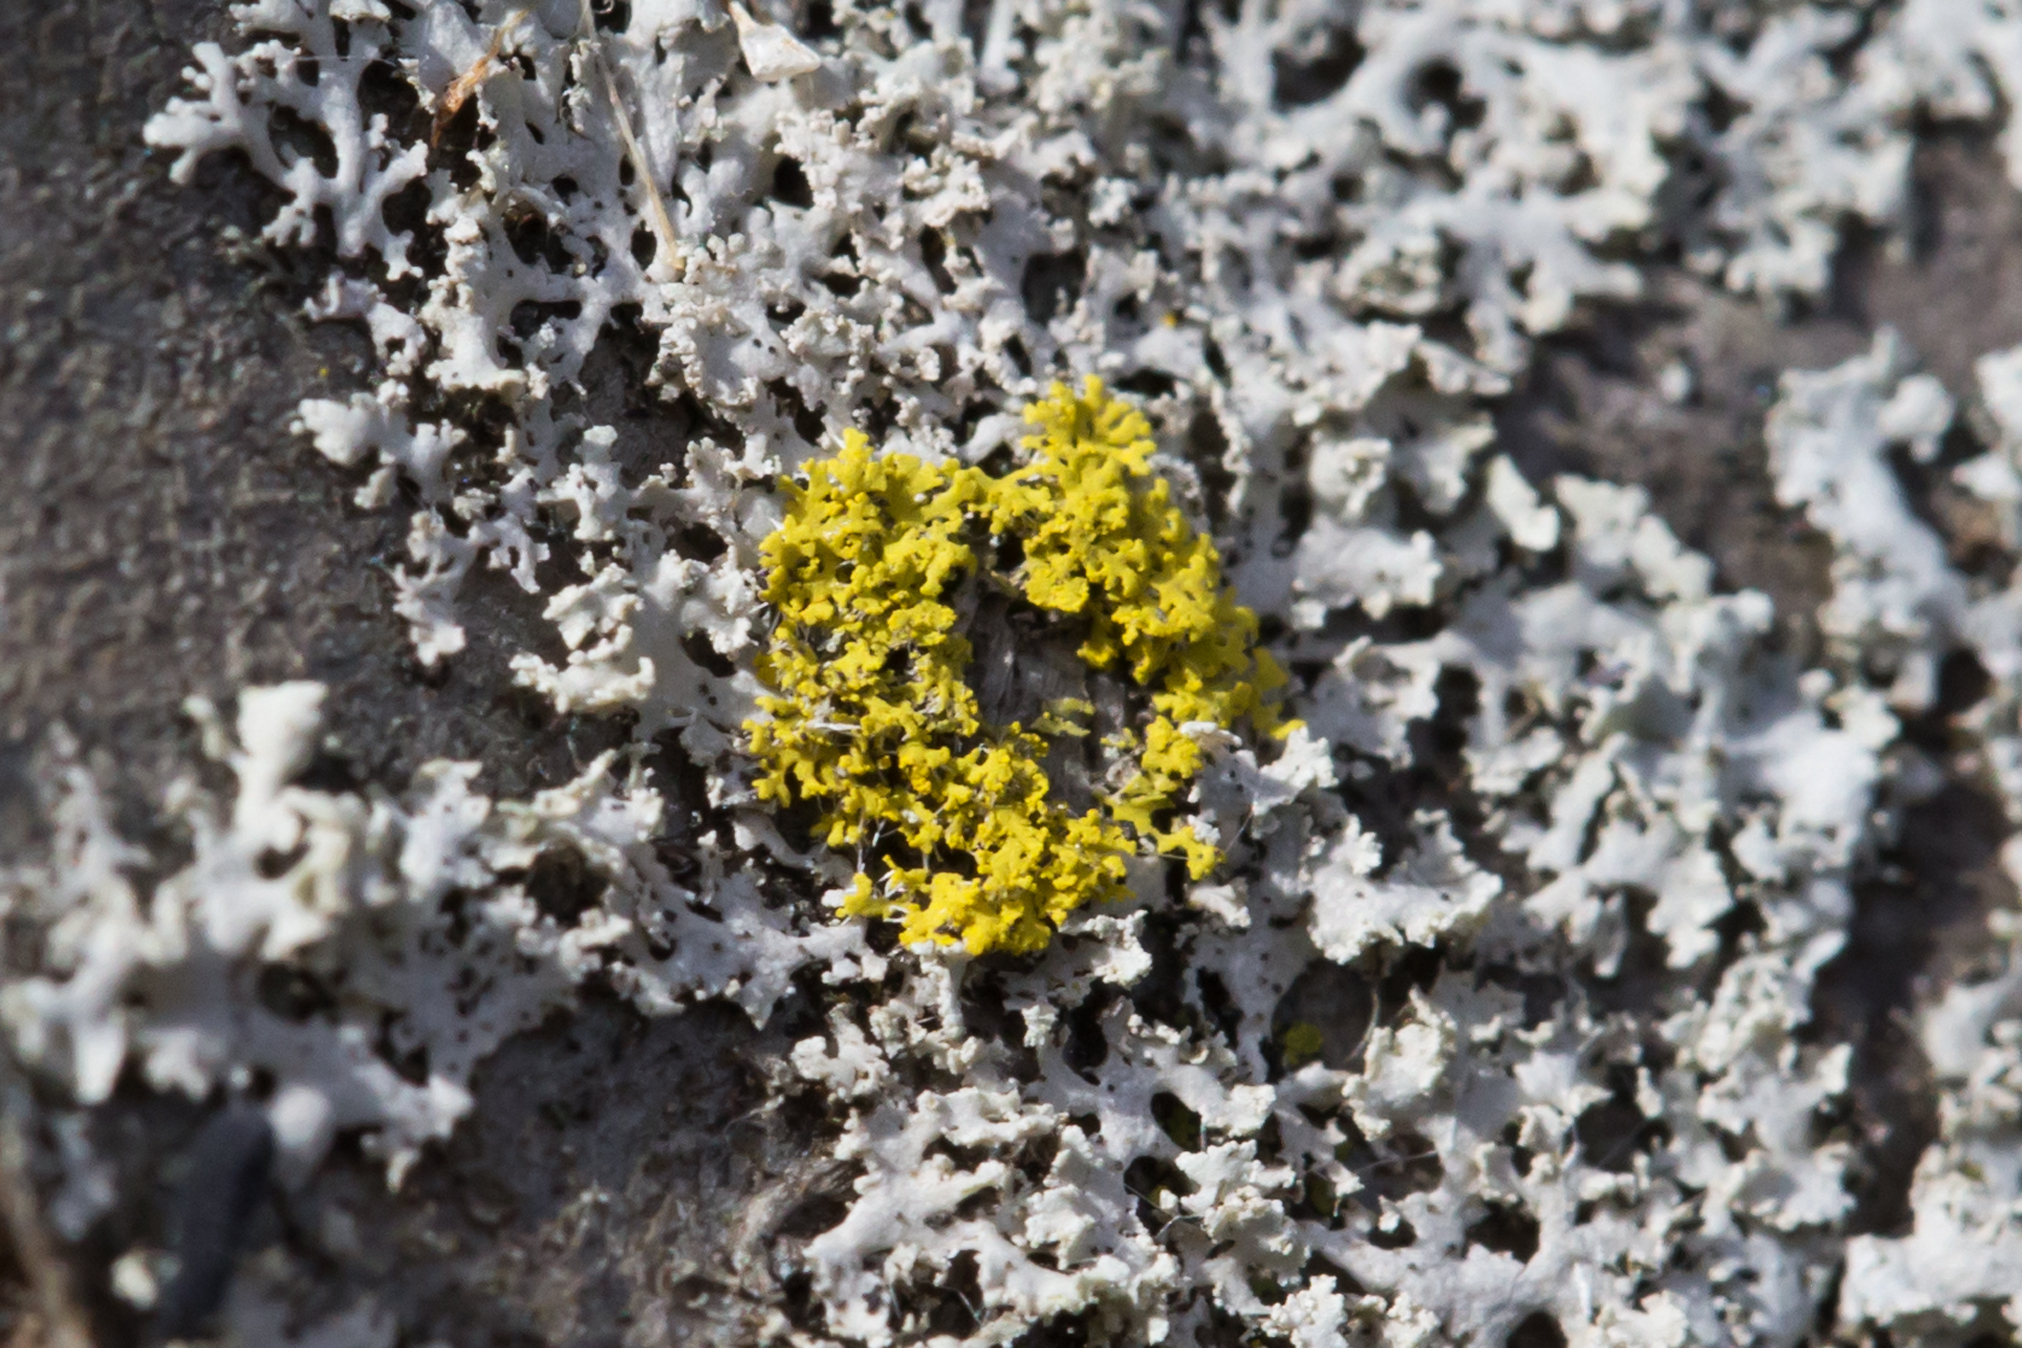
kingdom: Fungi
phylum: Ascomycota
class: Candelariomycetes
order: Candelariales
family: Candelariaceae
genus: Candelaria
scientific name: Candelaria concolor
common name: Candleflame lichen
